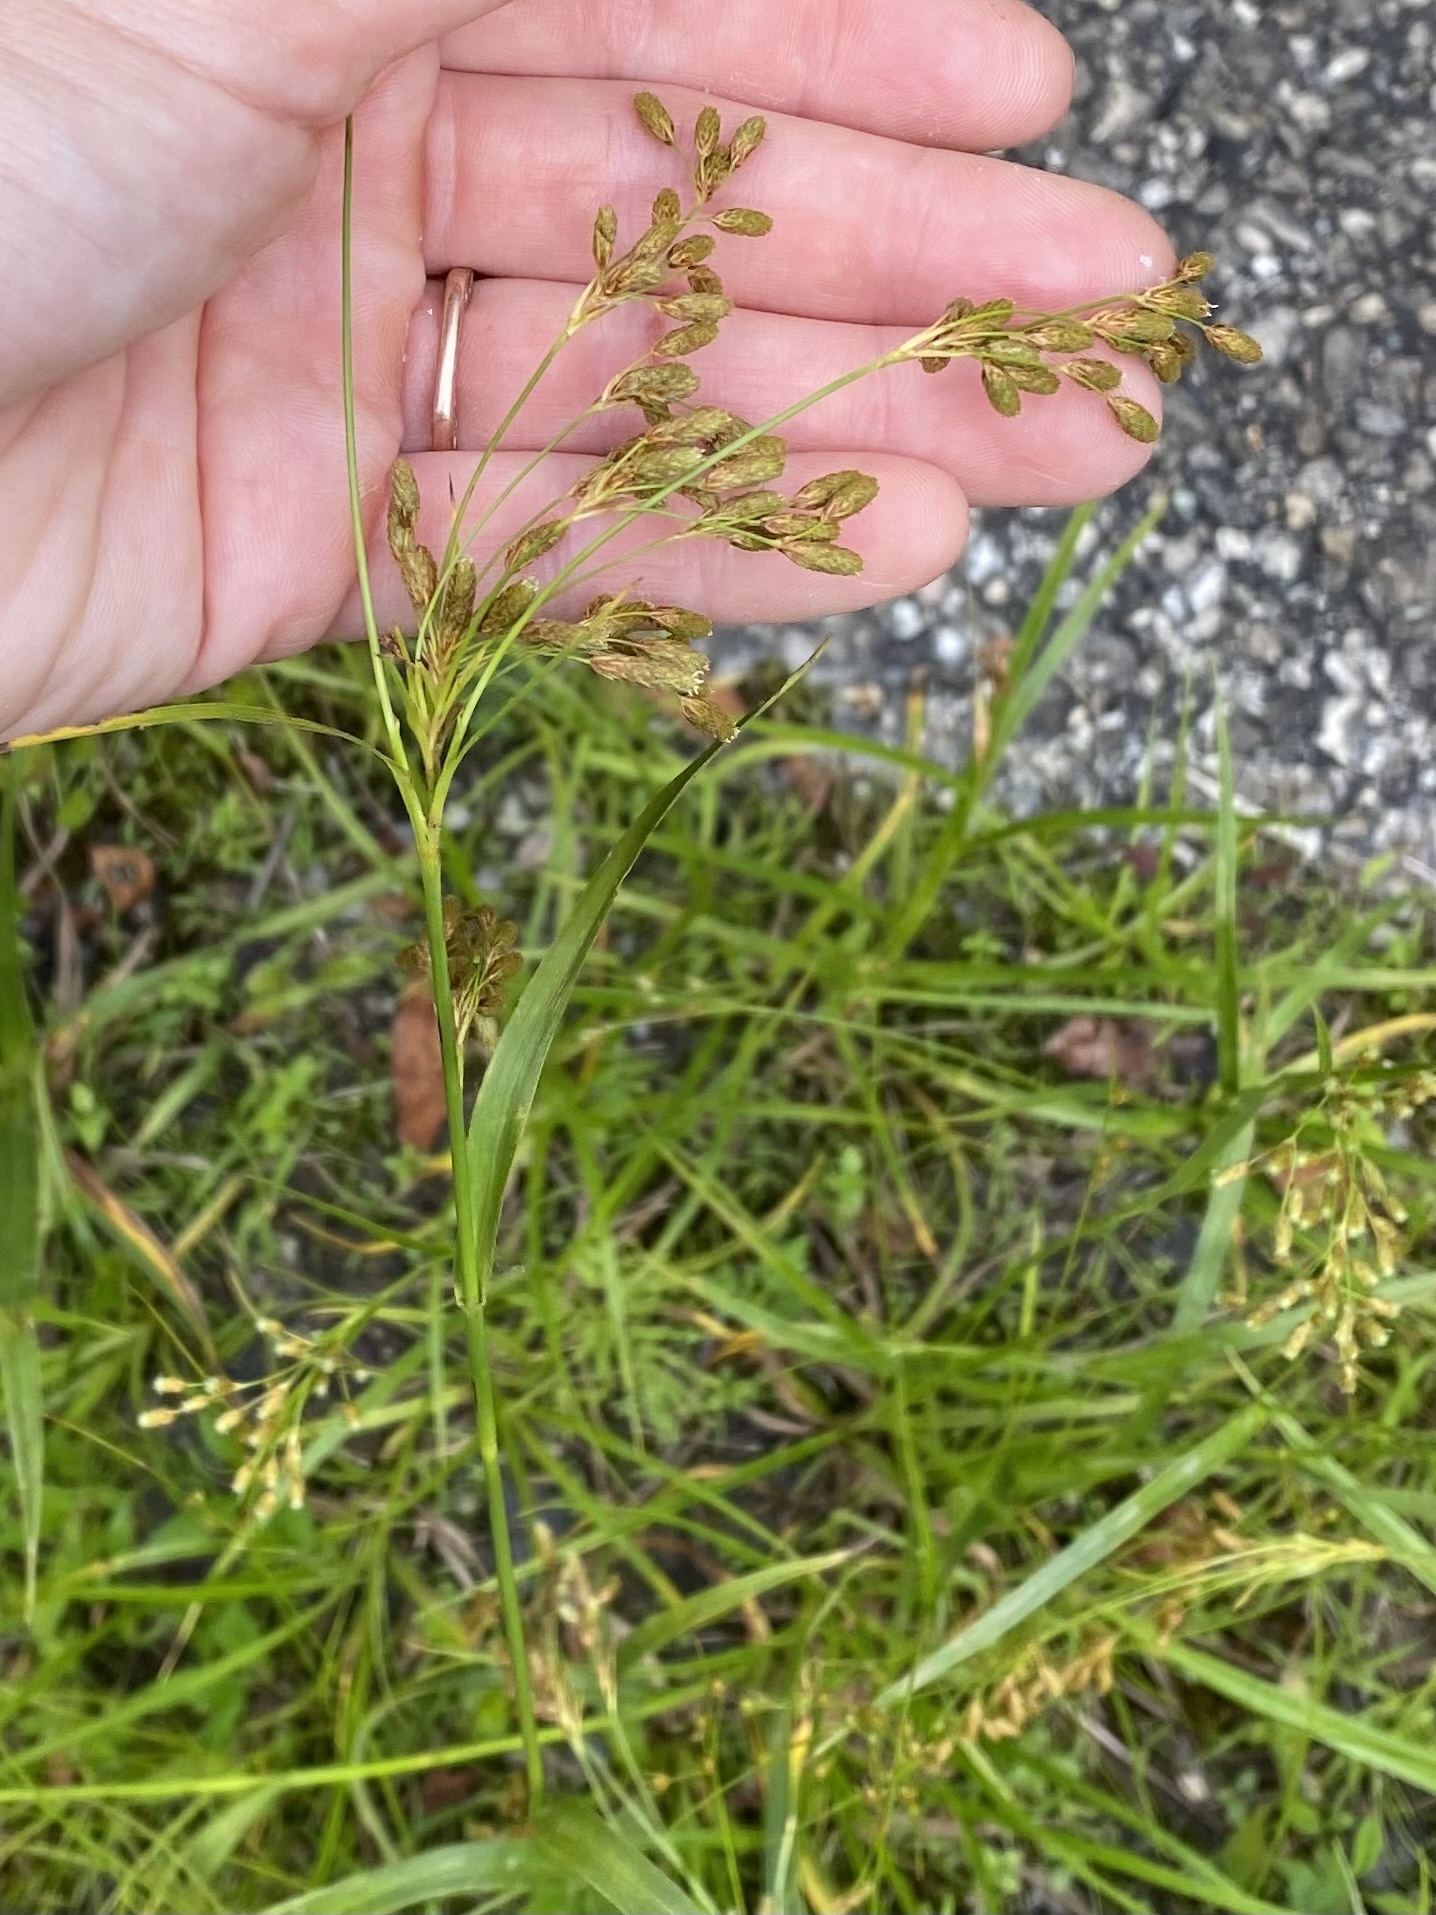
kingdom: Plantae
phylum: Tracheophyta
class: Liliopsida
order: Poales
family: Cyperaceae
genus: Scirpus
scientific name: Scirpus pendulus
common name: Nodding bulrush
